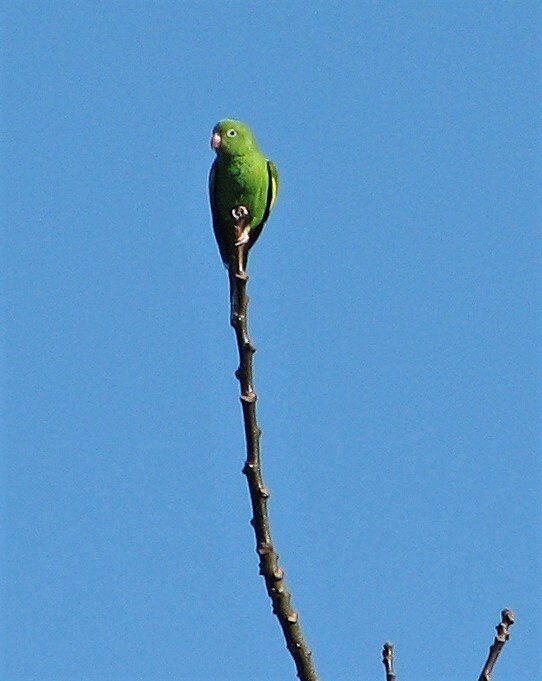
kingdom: Animalia
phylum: Chordata
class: Aves
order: Psittaciformes
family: Psittacidae
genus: Brotogeris
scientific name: Brotogeris chiriri
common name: Yellow-chevroned parakeet
